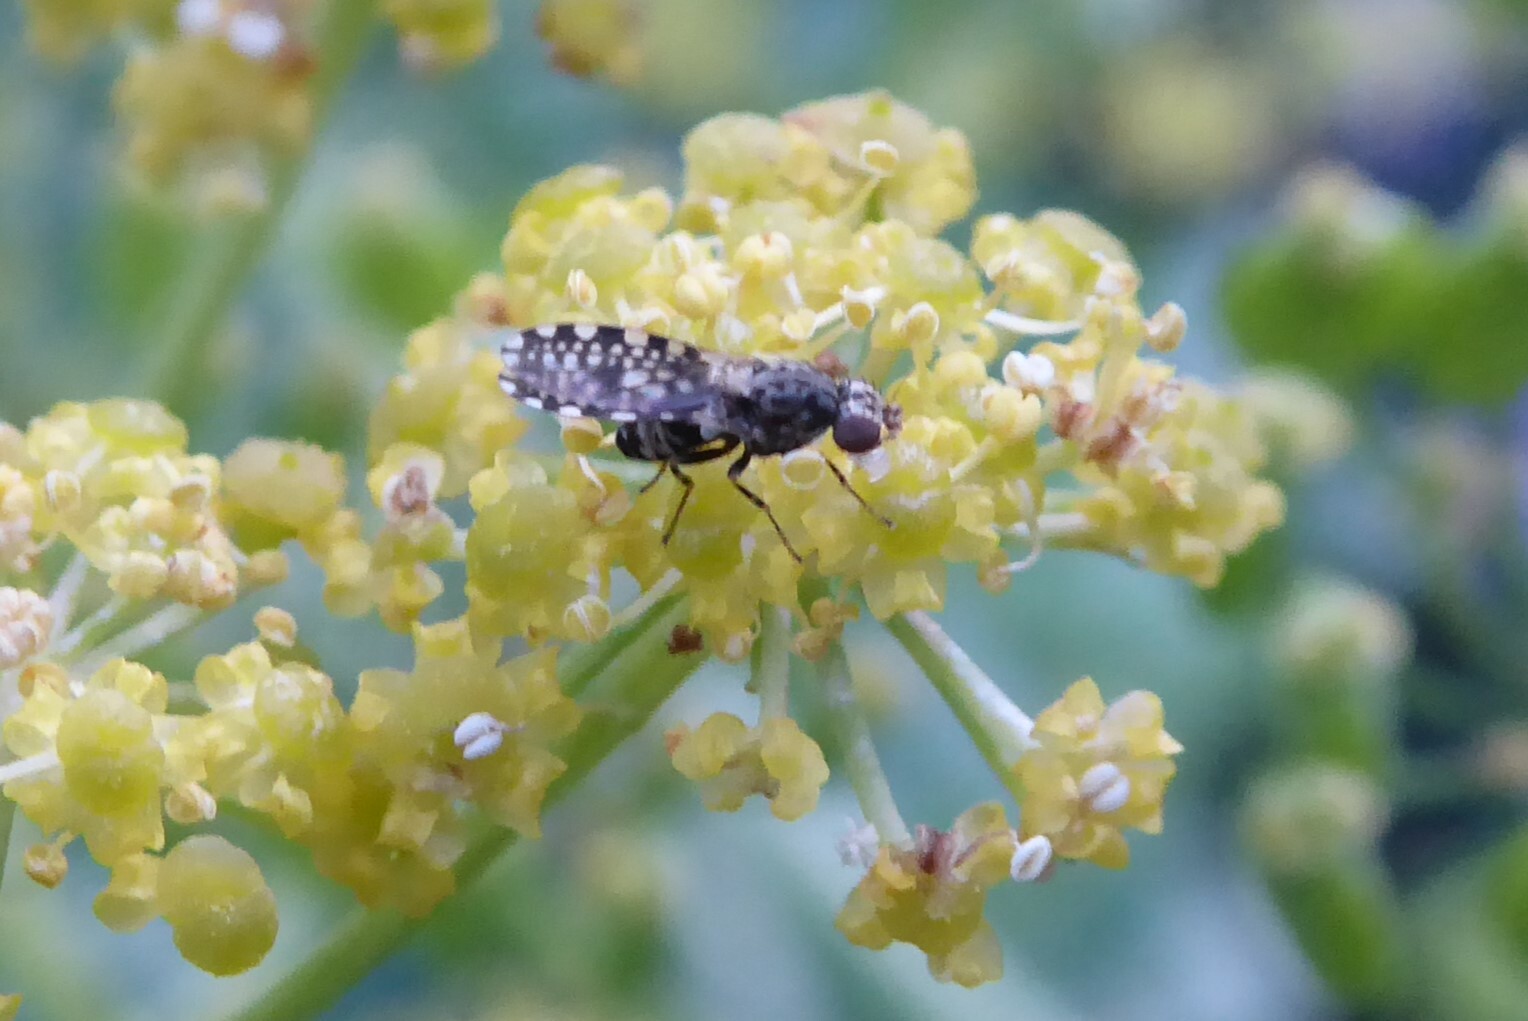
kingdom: Animalia
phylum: Arthropoda
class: Insecta
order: Diptera
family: Heleomyzidae
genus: Xeneura
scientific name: Xeneura picata
